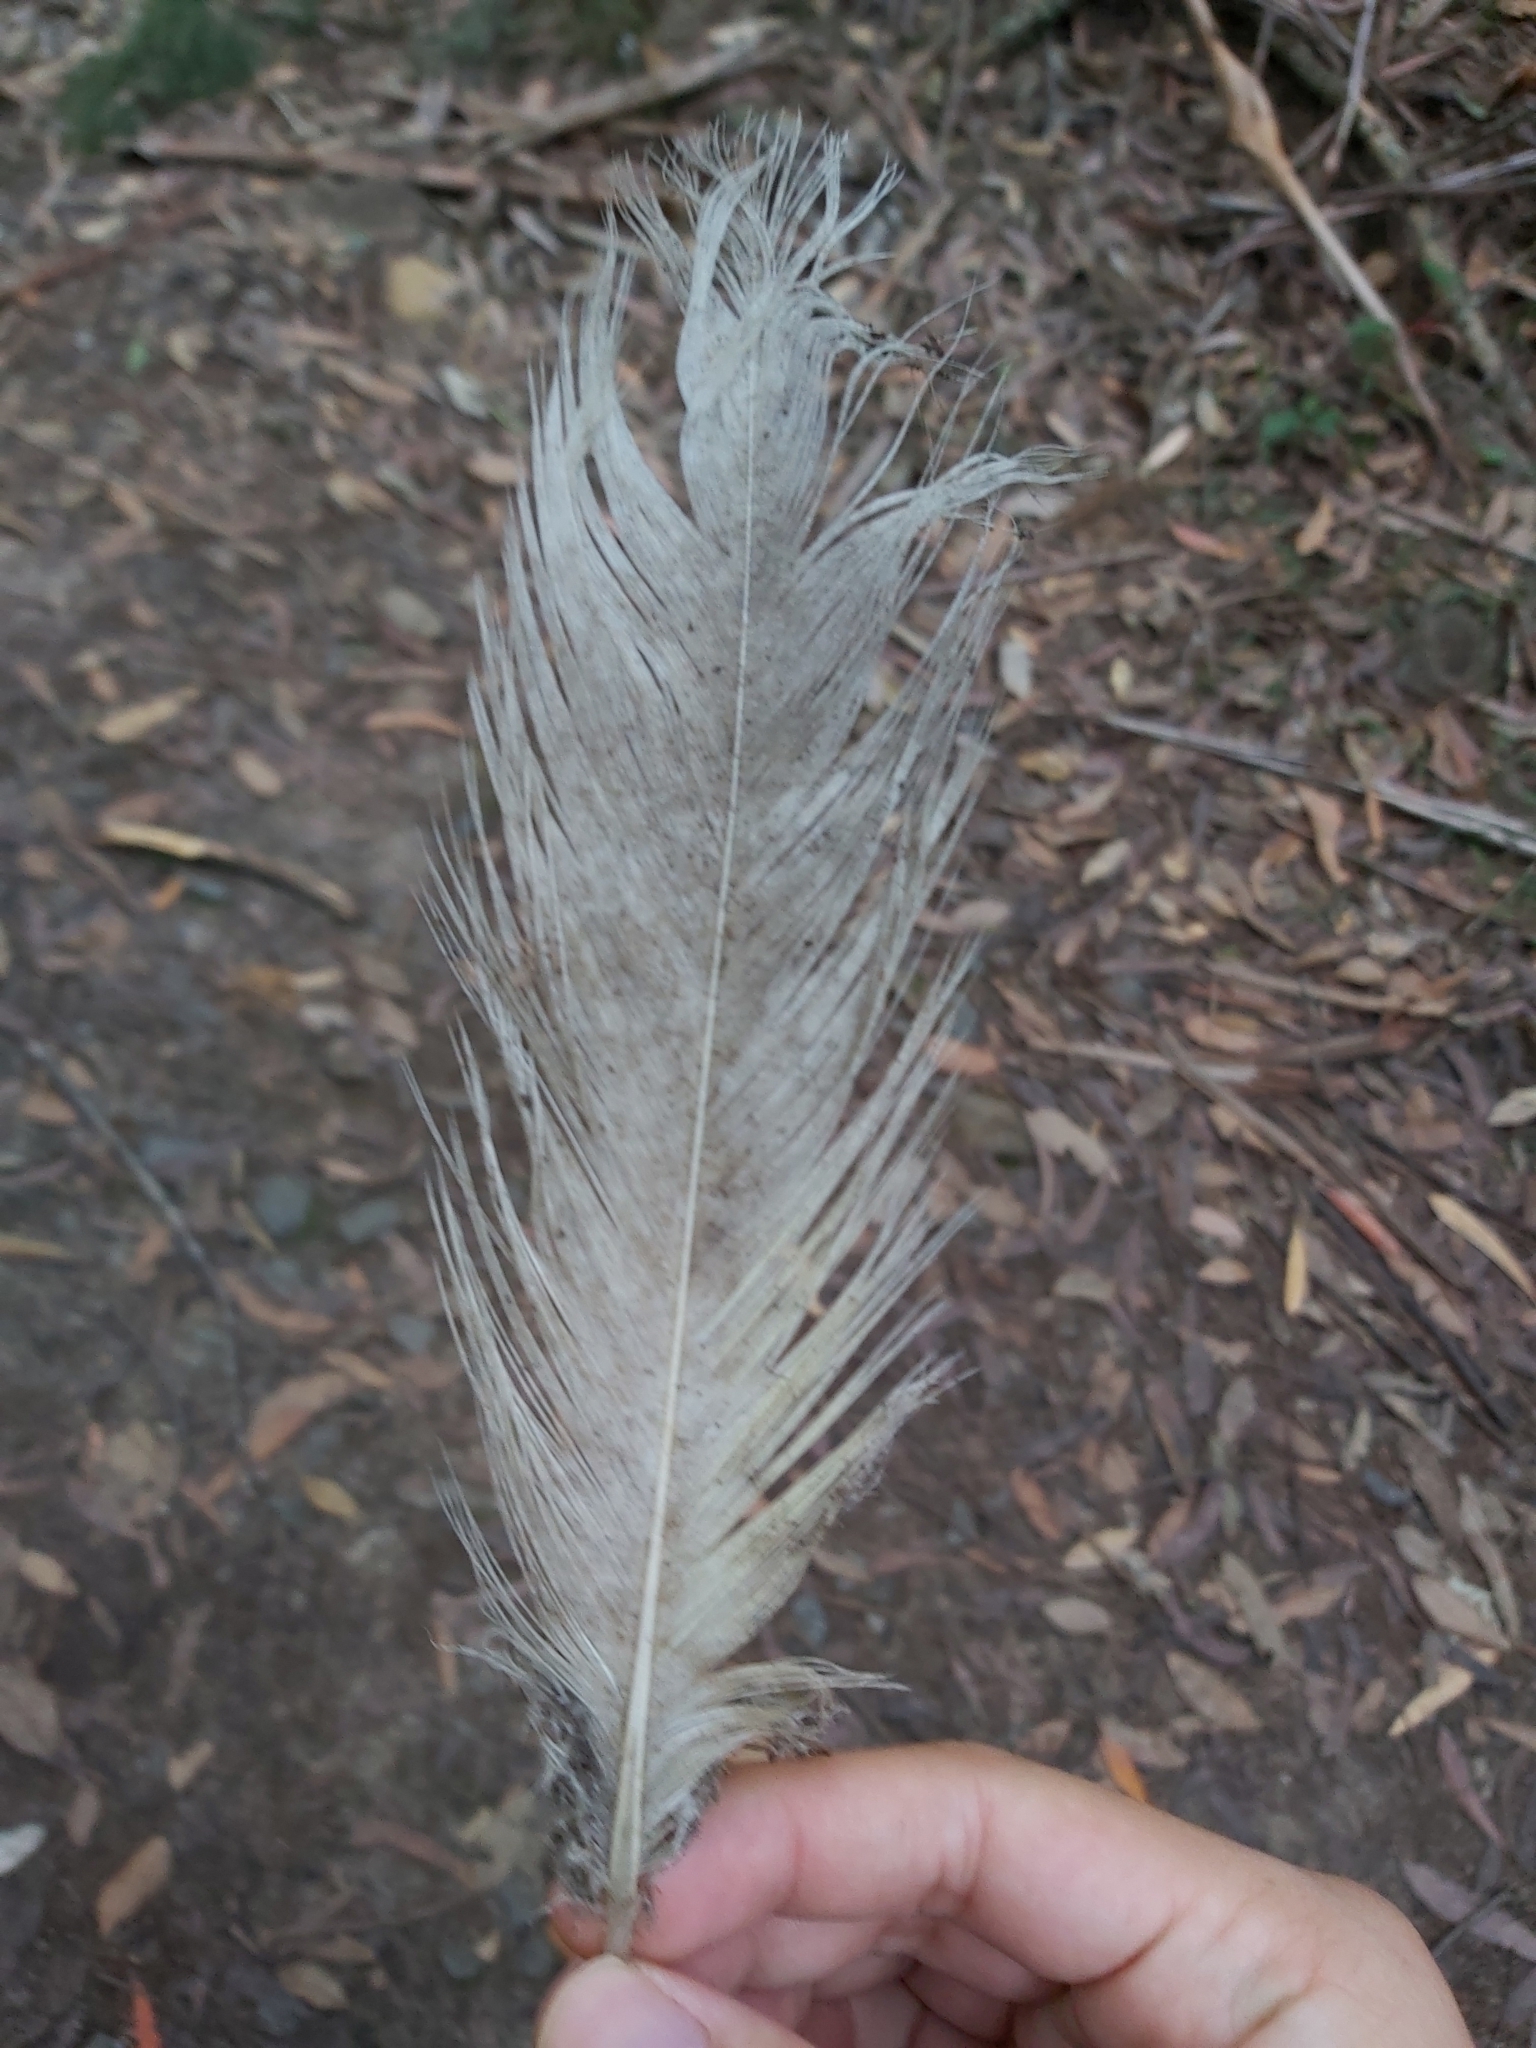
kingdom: Animalia
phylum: Chordata
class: Aves
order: Psittaciformes
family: Psittacidae
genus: Cacatua
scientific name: Cacatua galerita
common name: Sulphur-crested cockatoo
